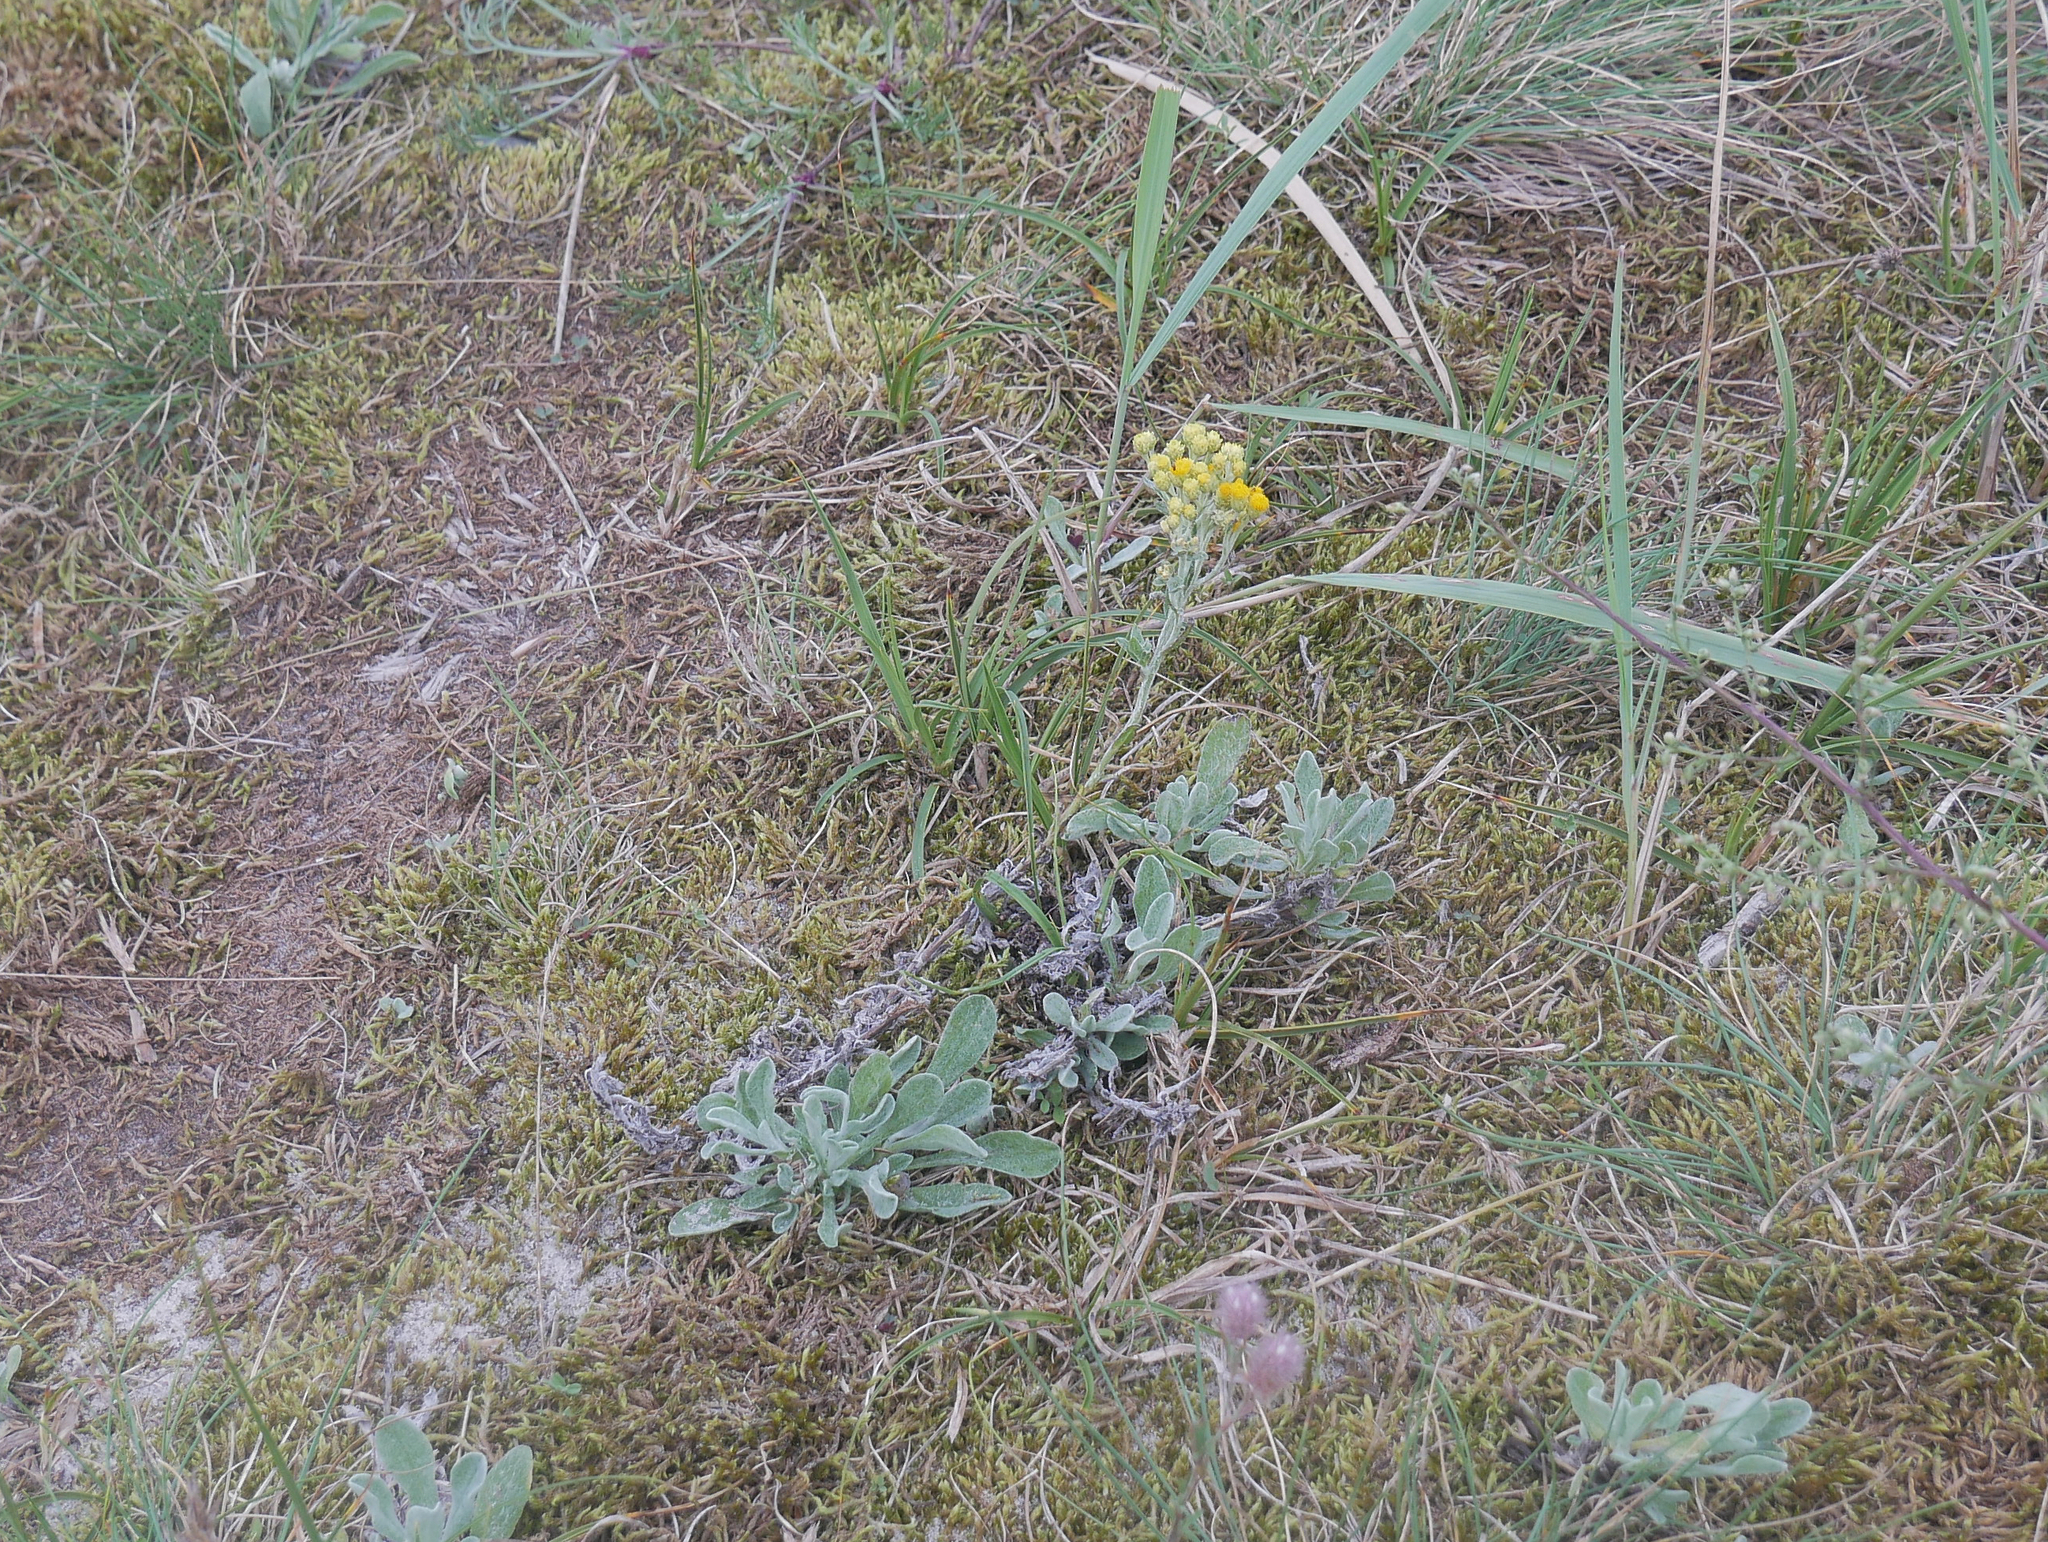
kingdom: Plantae
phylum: Tracheophyta
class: Magnoliopsida
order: Asterales
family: Asteraceae
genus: Helichrysum
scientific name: Helichrysum arenarium
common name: Strawflower
